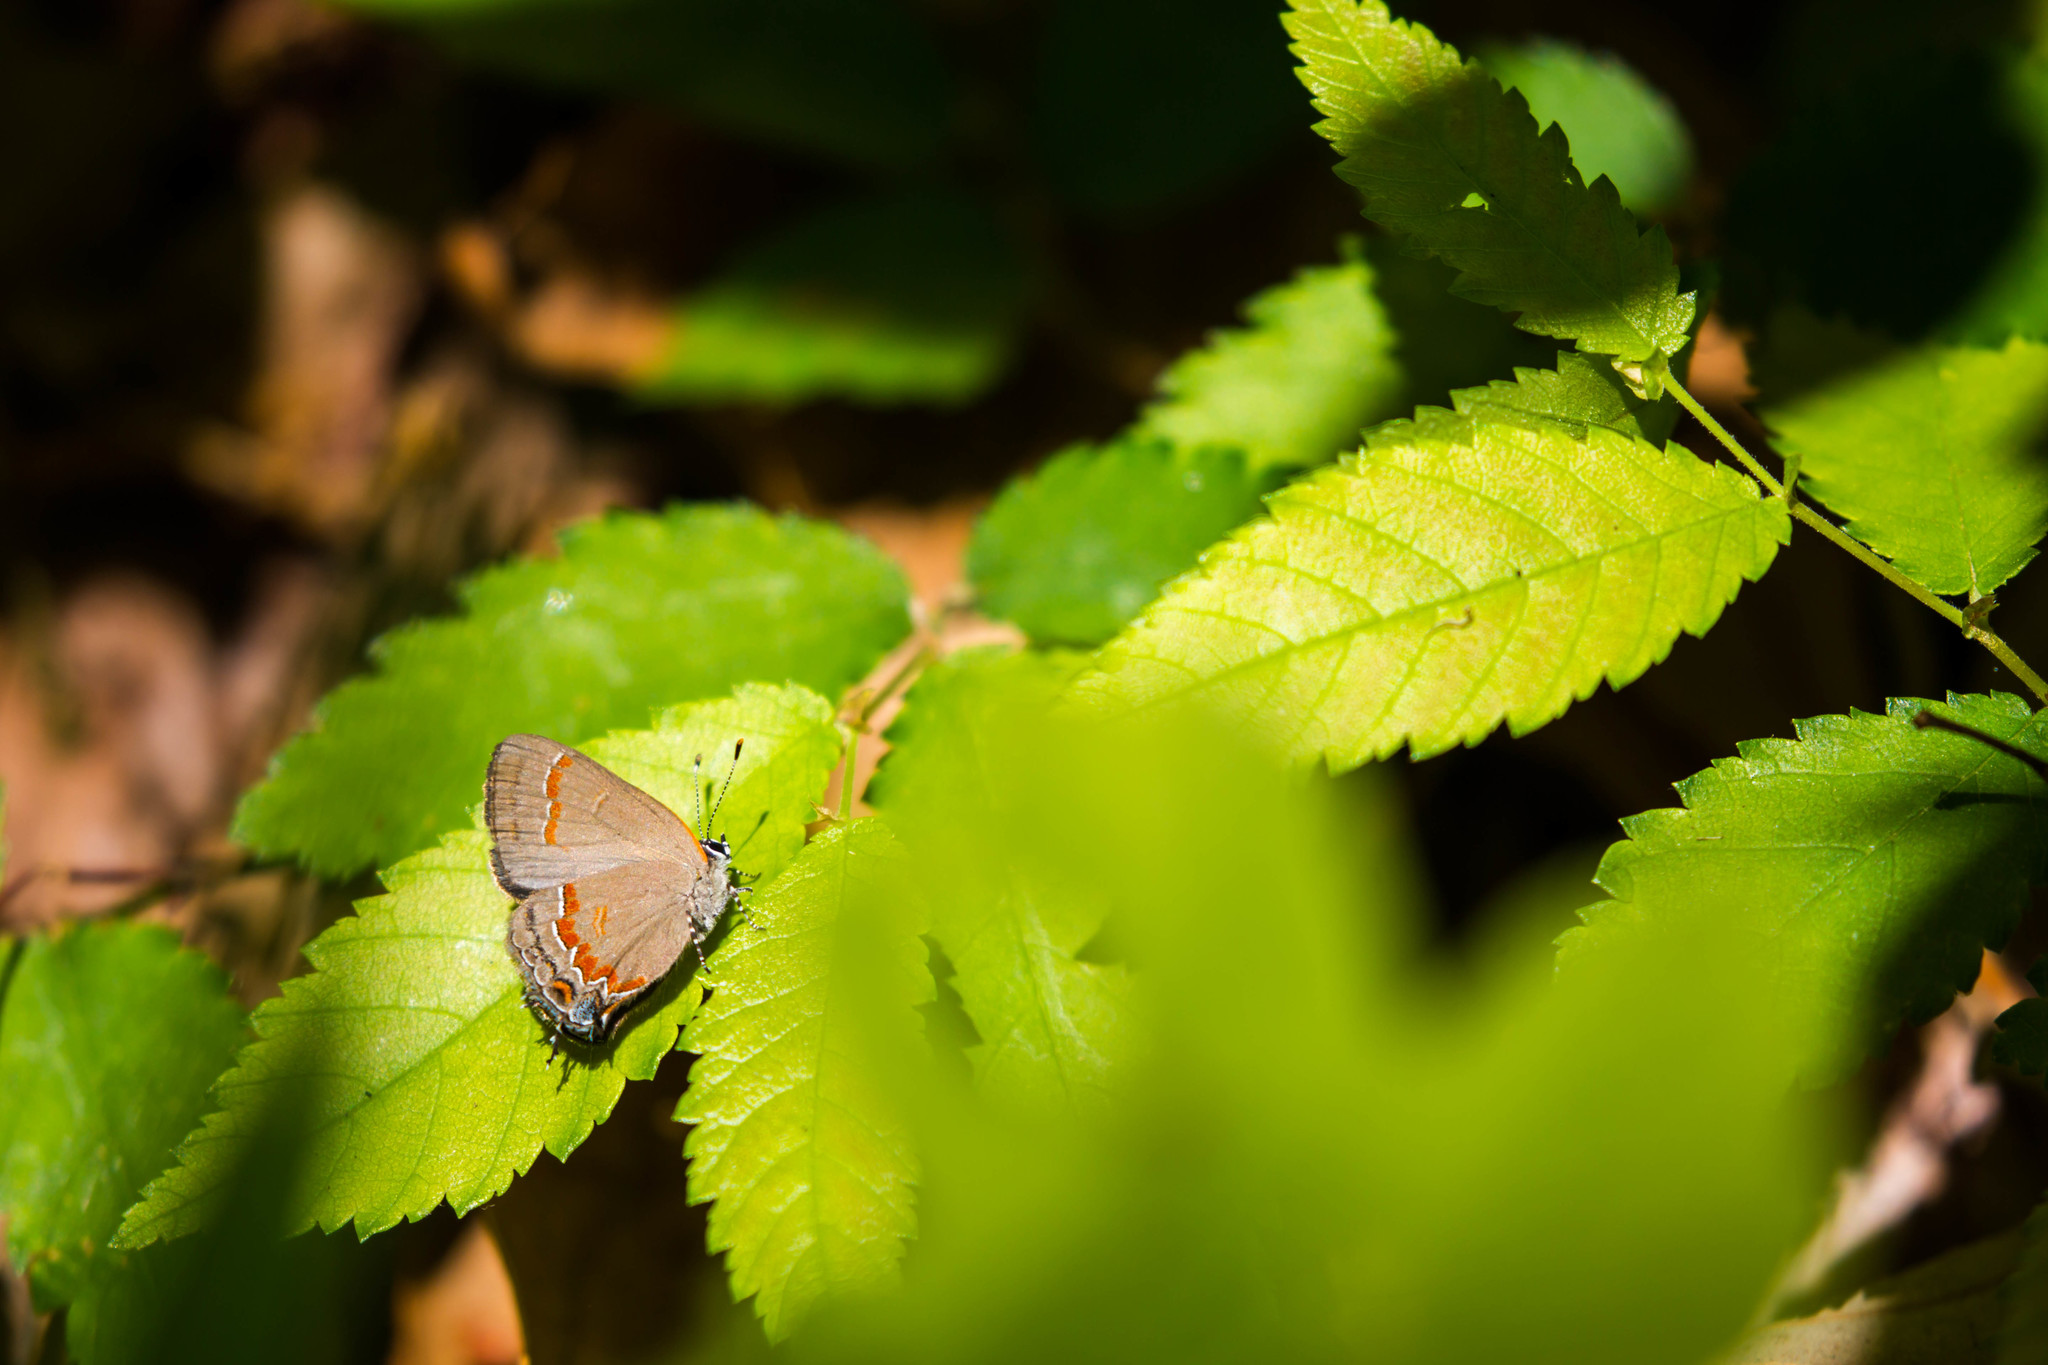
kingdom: Animalia
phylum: Arthropoda
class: Insecta
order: Lepidoptera
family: Lycaenidae
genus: Calycopis
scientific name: Calycopis cecrops
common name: Red-banded hairstreak
